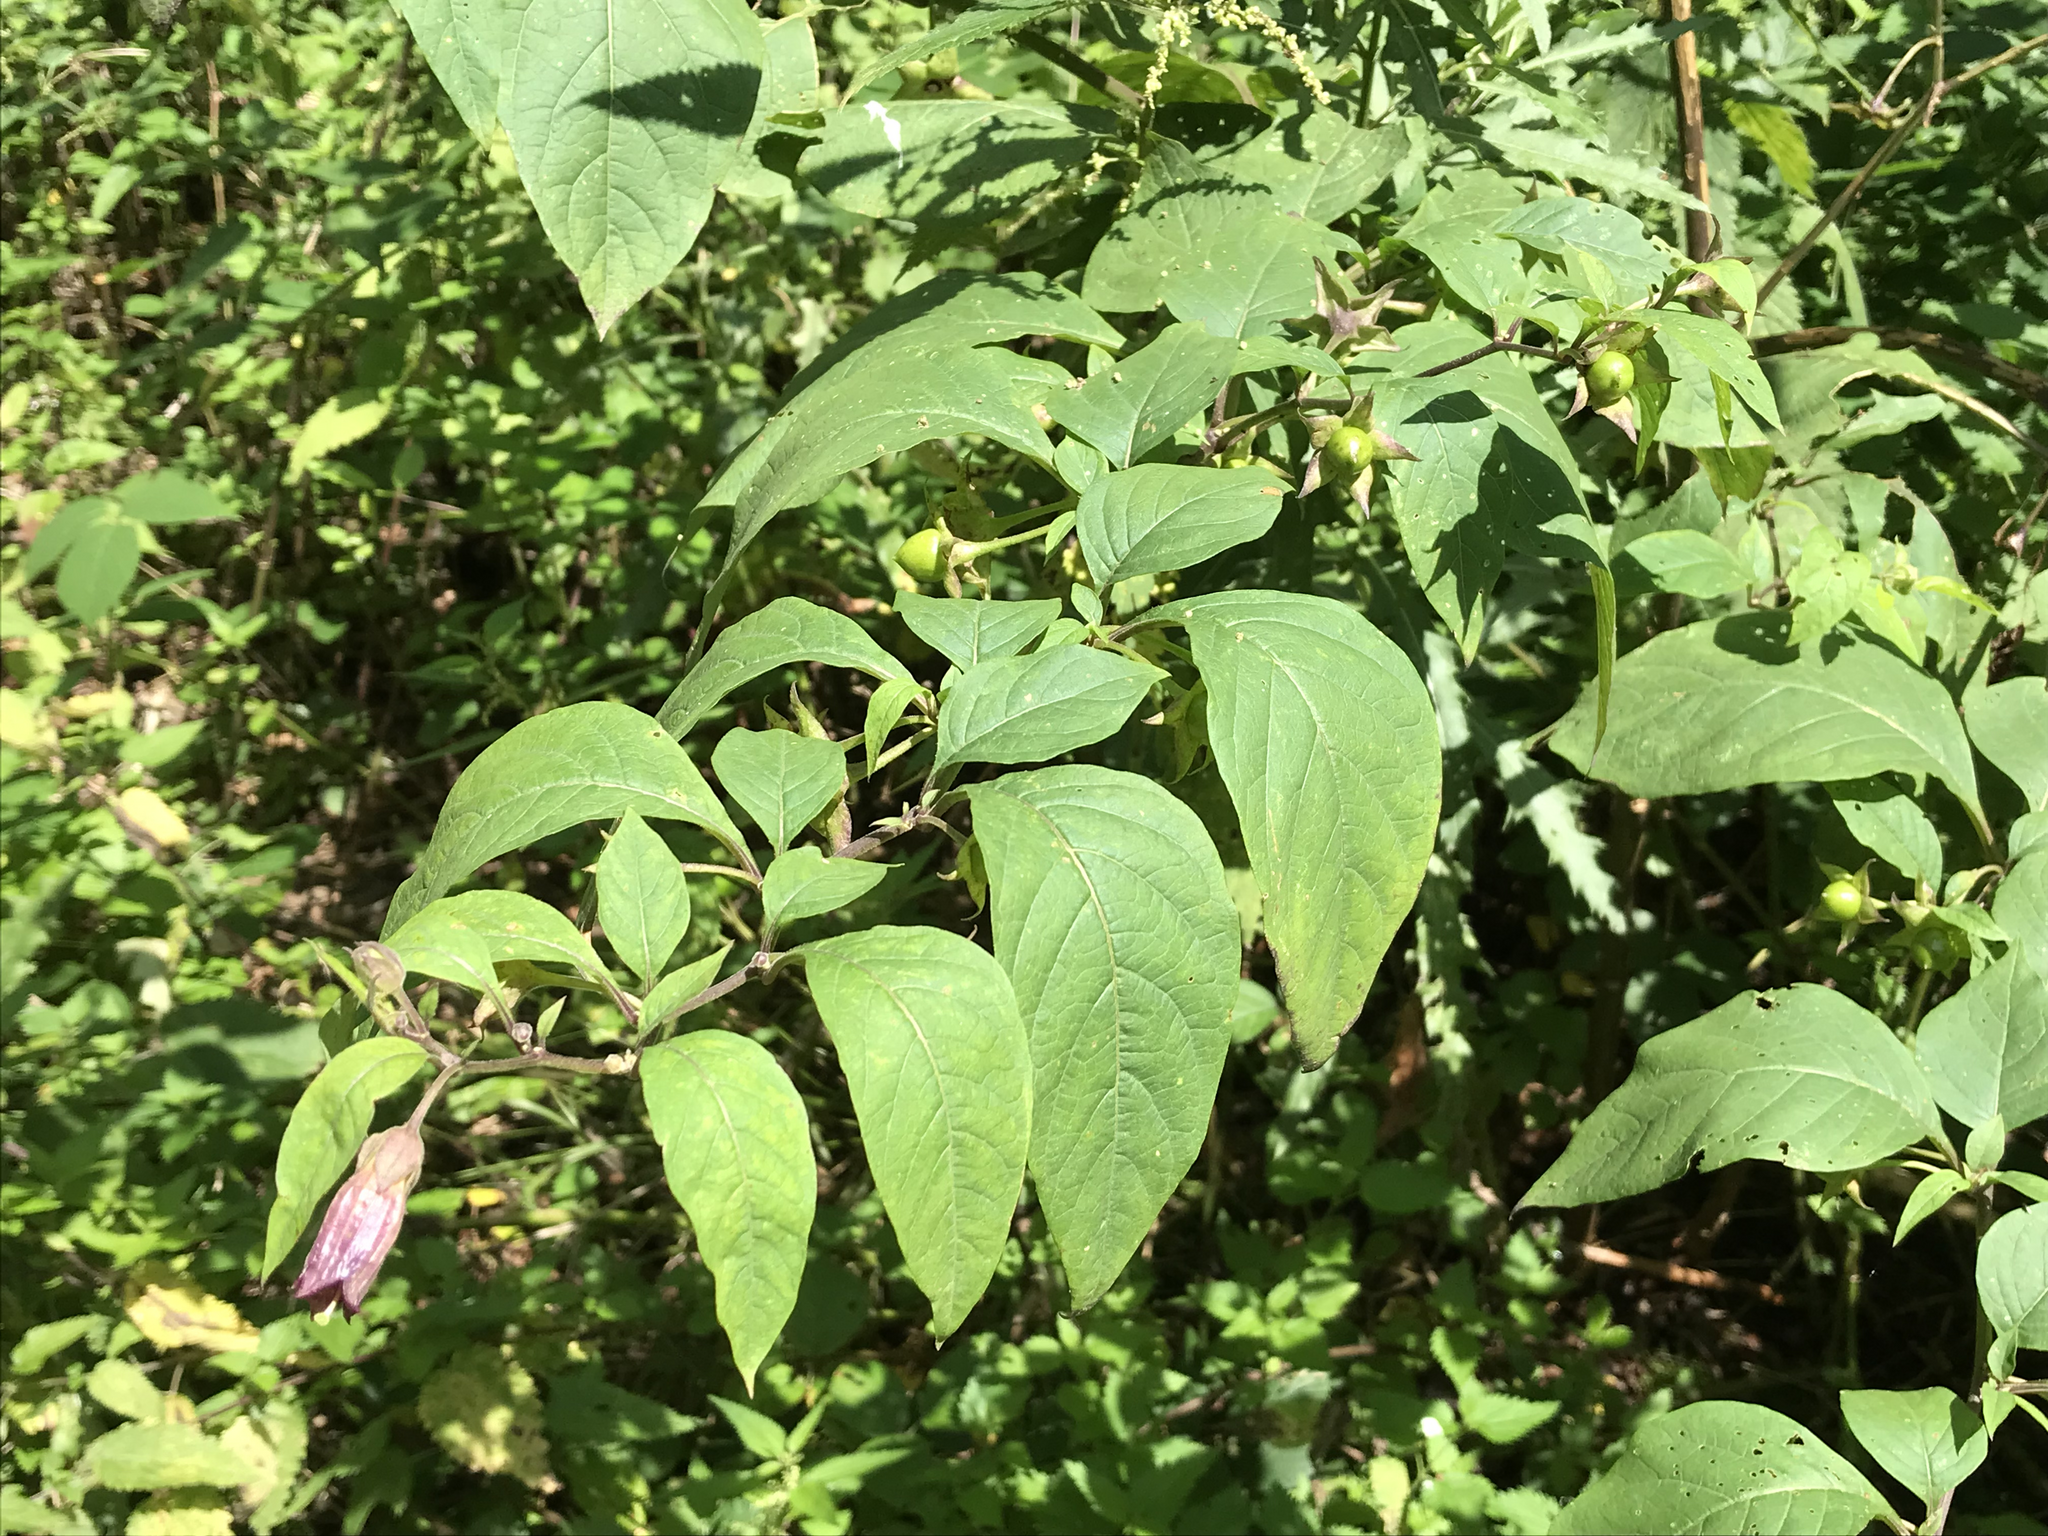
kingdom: Plantae
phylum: Tracheophyta
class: Magnoliopsida
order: Solanales
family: Solanaceae
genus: Atropa
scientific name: Atropa belladonna
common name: Deadly nightshade
